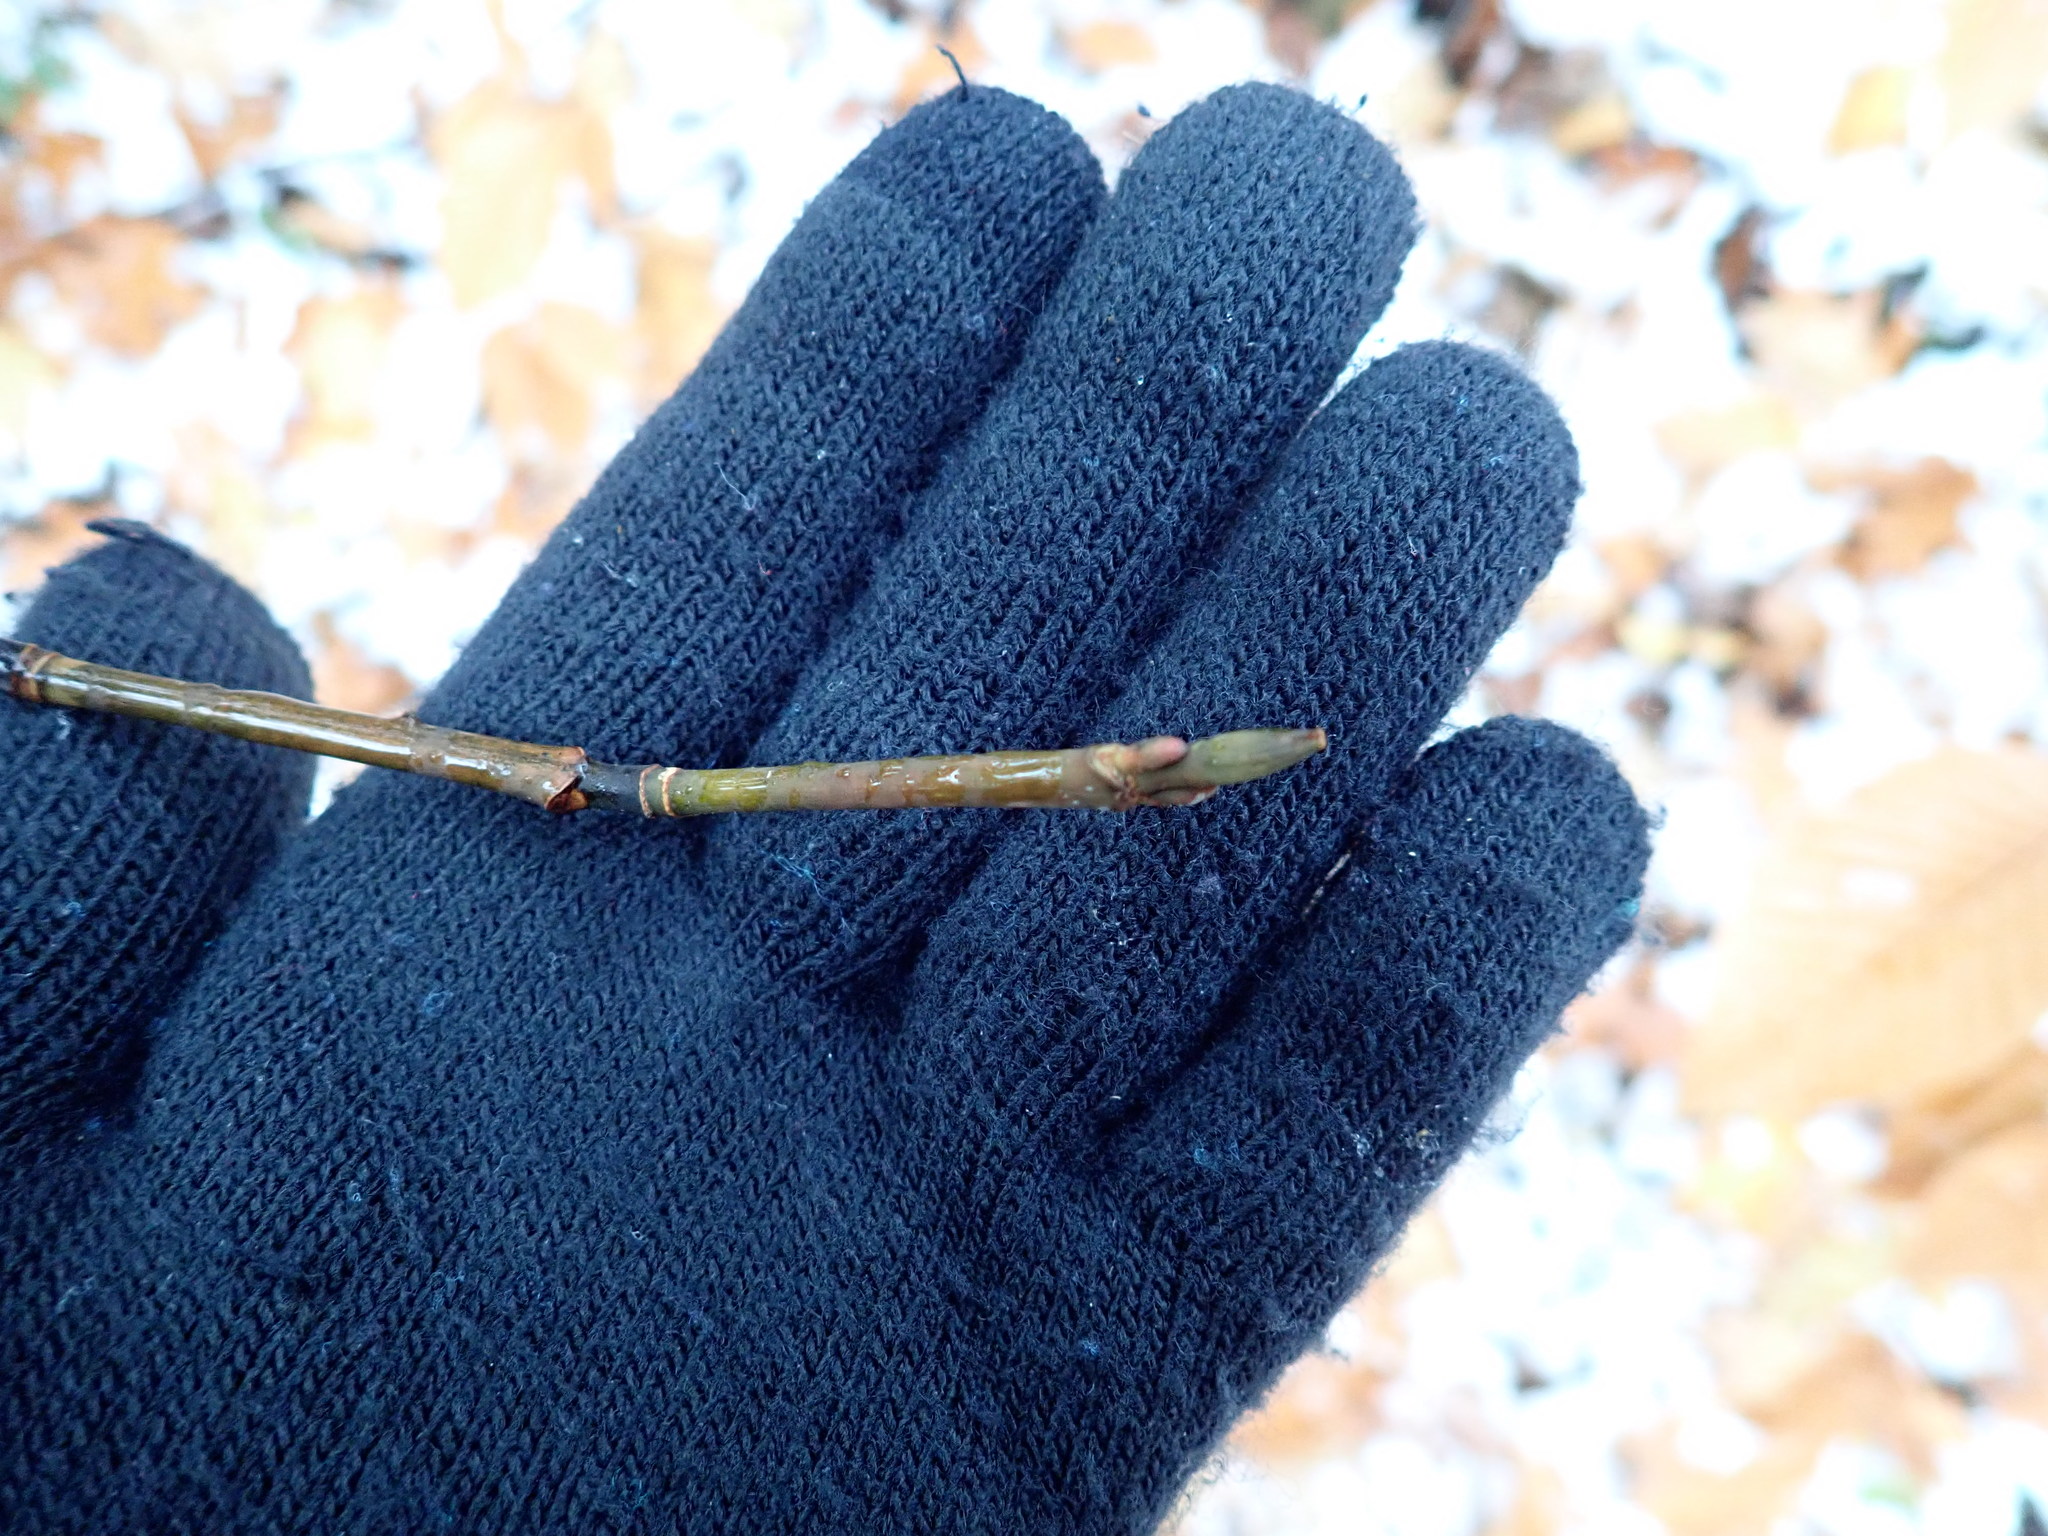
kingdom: Plantae
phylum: Tracheophyta
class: Magnoliopsida
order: Sapindales
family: Sapindaceae
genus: Acer
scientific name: Acer pensylvanicum
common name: Moosewood
